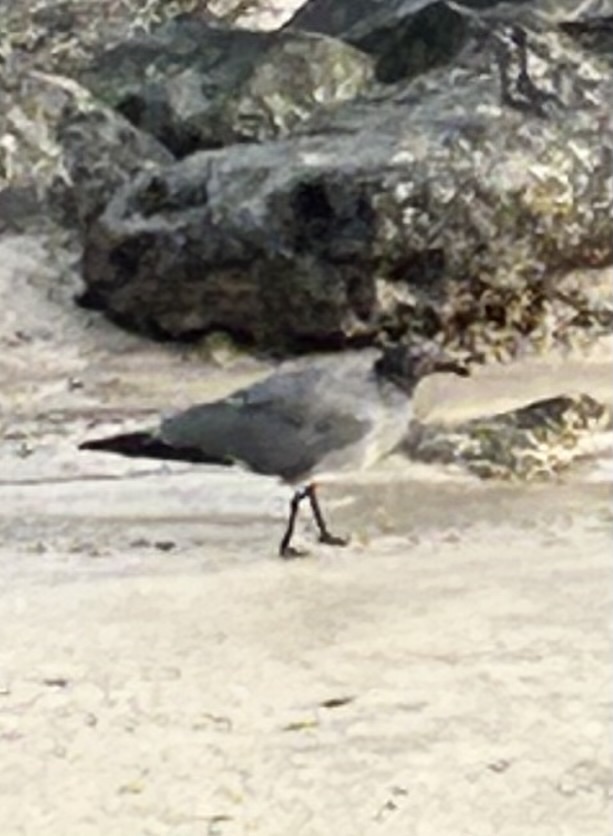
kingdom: Animalia
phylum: Chordata
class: Aves
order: Charadriiformes
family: Laridae
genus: Leucophaeus
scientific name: Leucophaeus fuliginosus
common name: Lava gull
